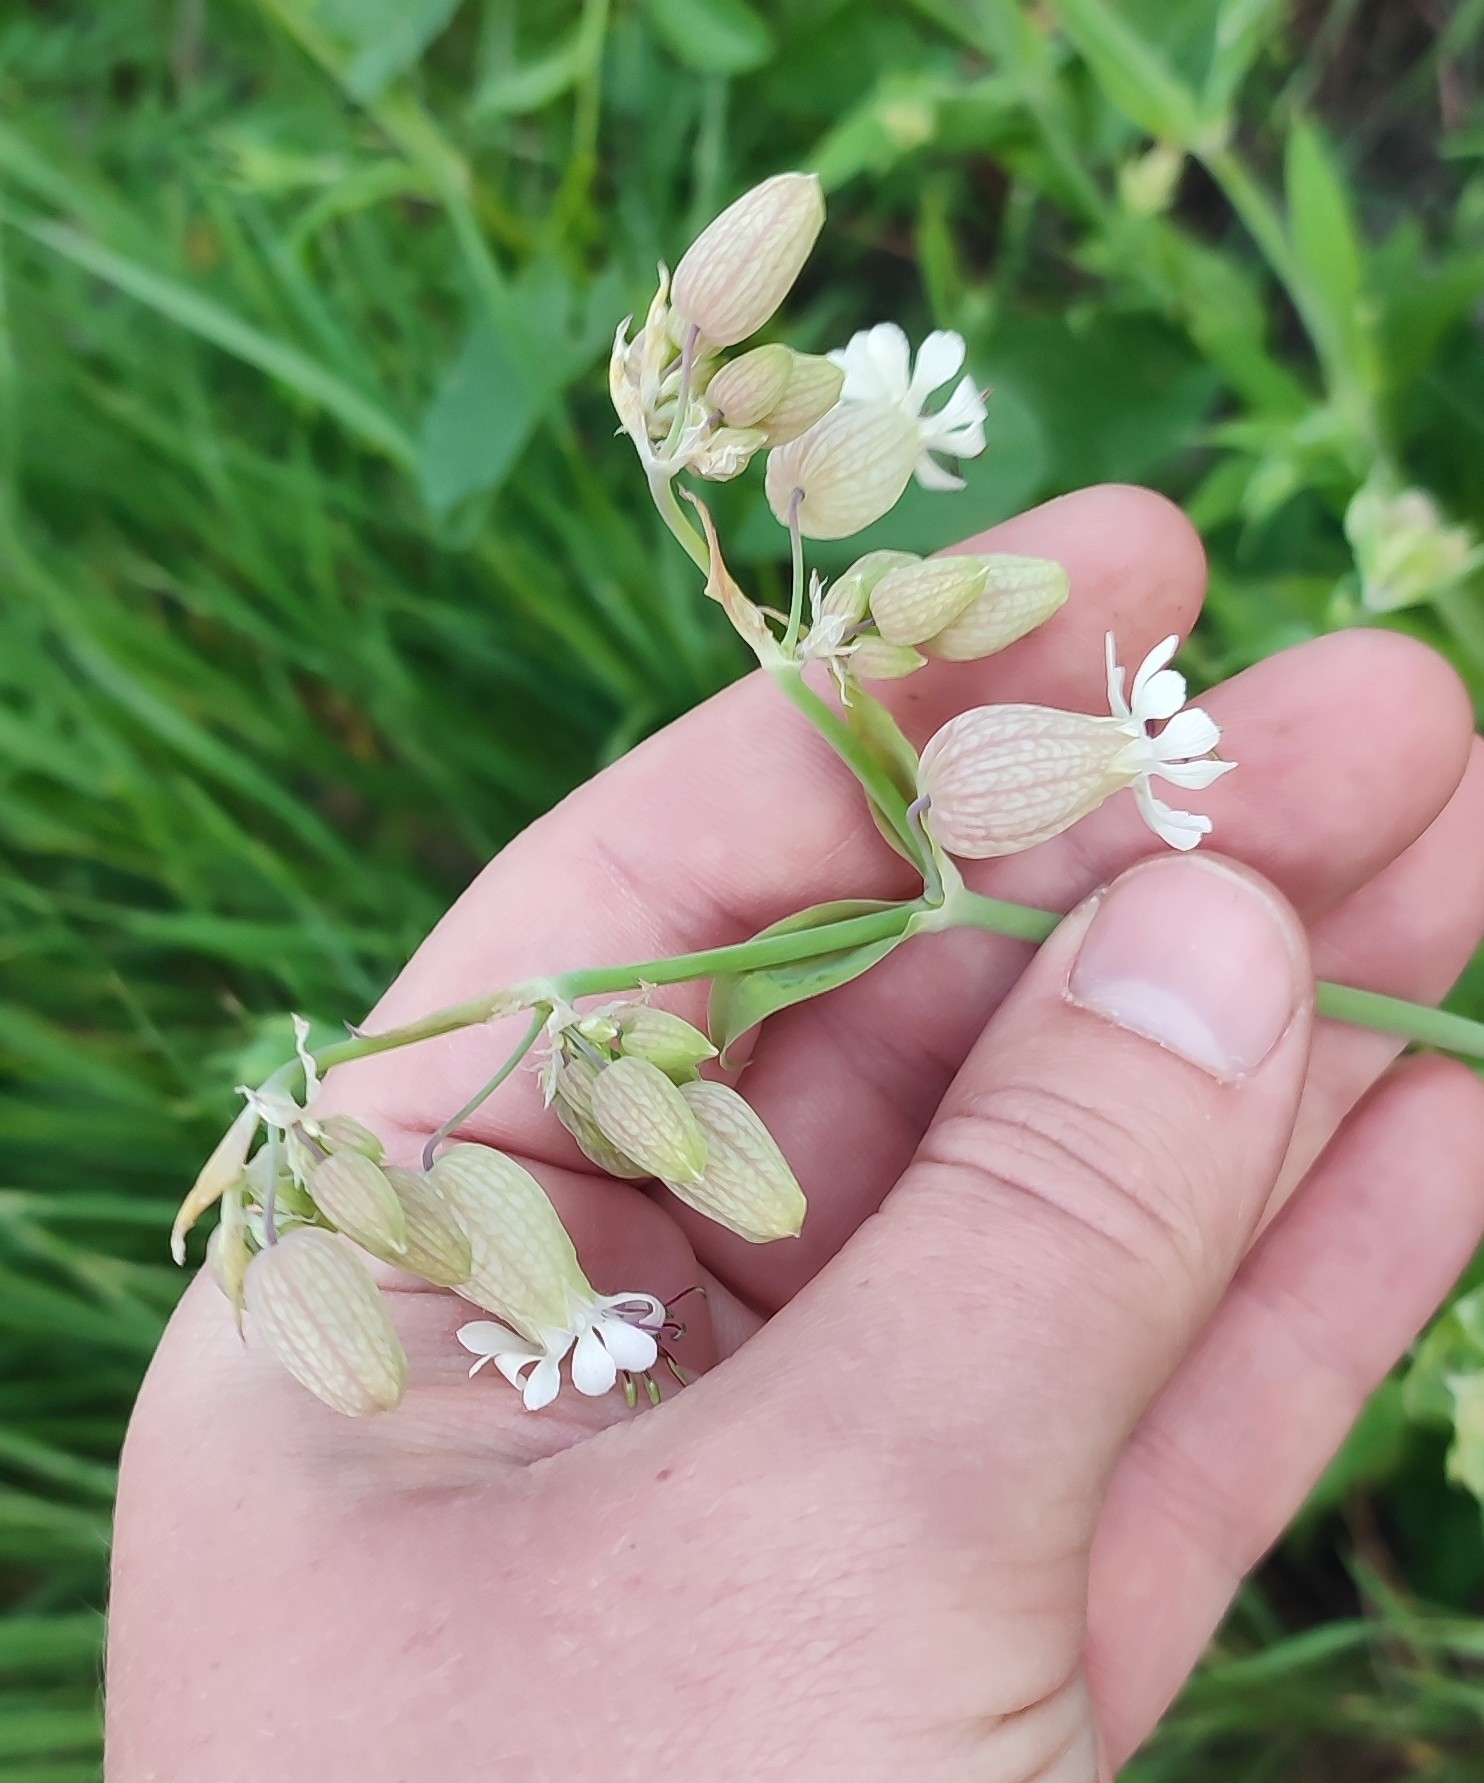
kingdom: Plantae
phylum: Tracheophyta
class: Magnoliopsida
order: Caryophyllales
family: Caryophyllaceae
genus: Silene
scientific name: Silene vulgaris
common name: Bladder campion
